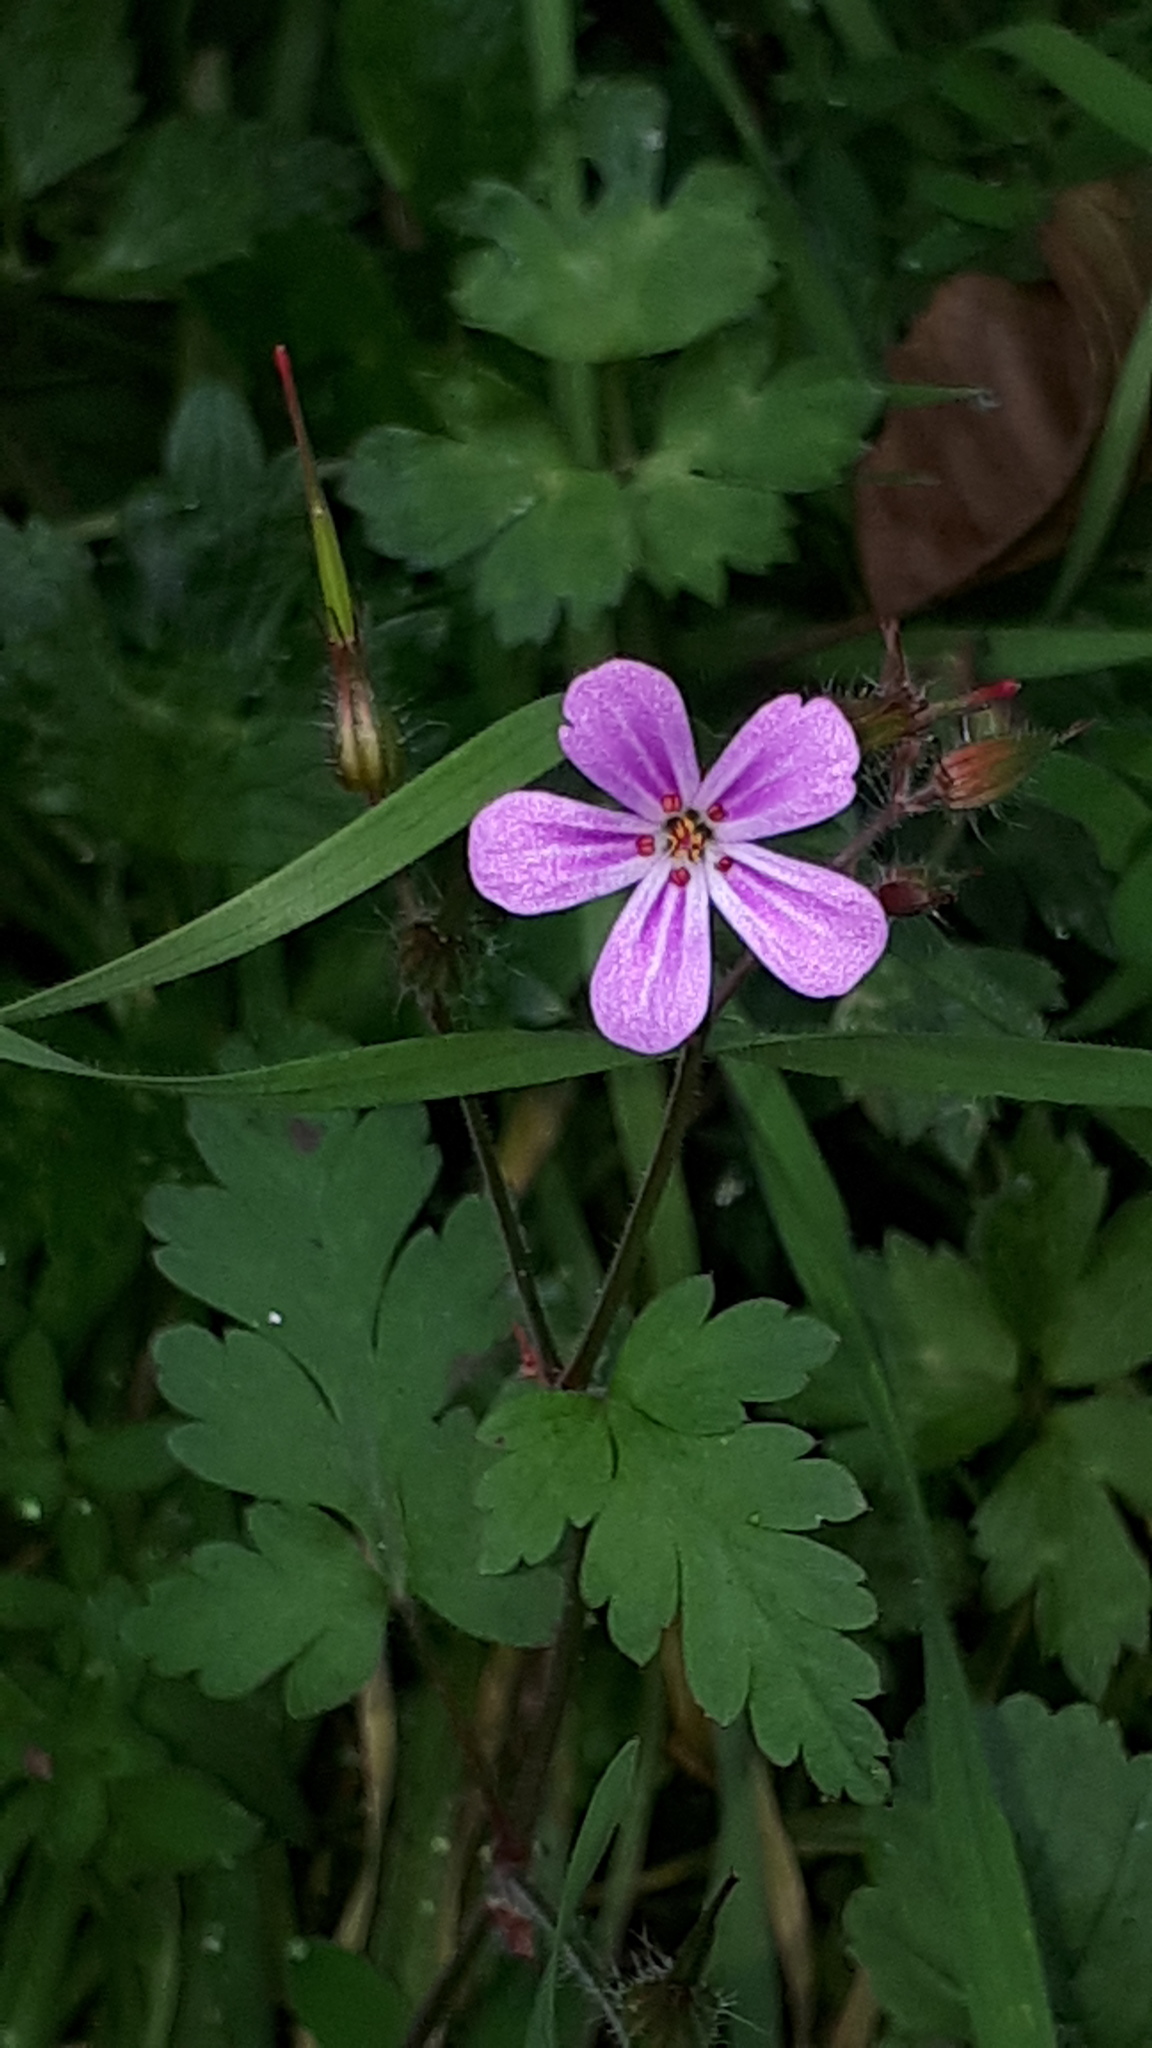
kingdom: Plantae
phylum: Tracheophyta
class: Magnoliopsida
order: Geraniales
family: Geraniaceae
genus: Geranium
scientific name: Geranium robertianum
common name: Herb-robert
